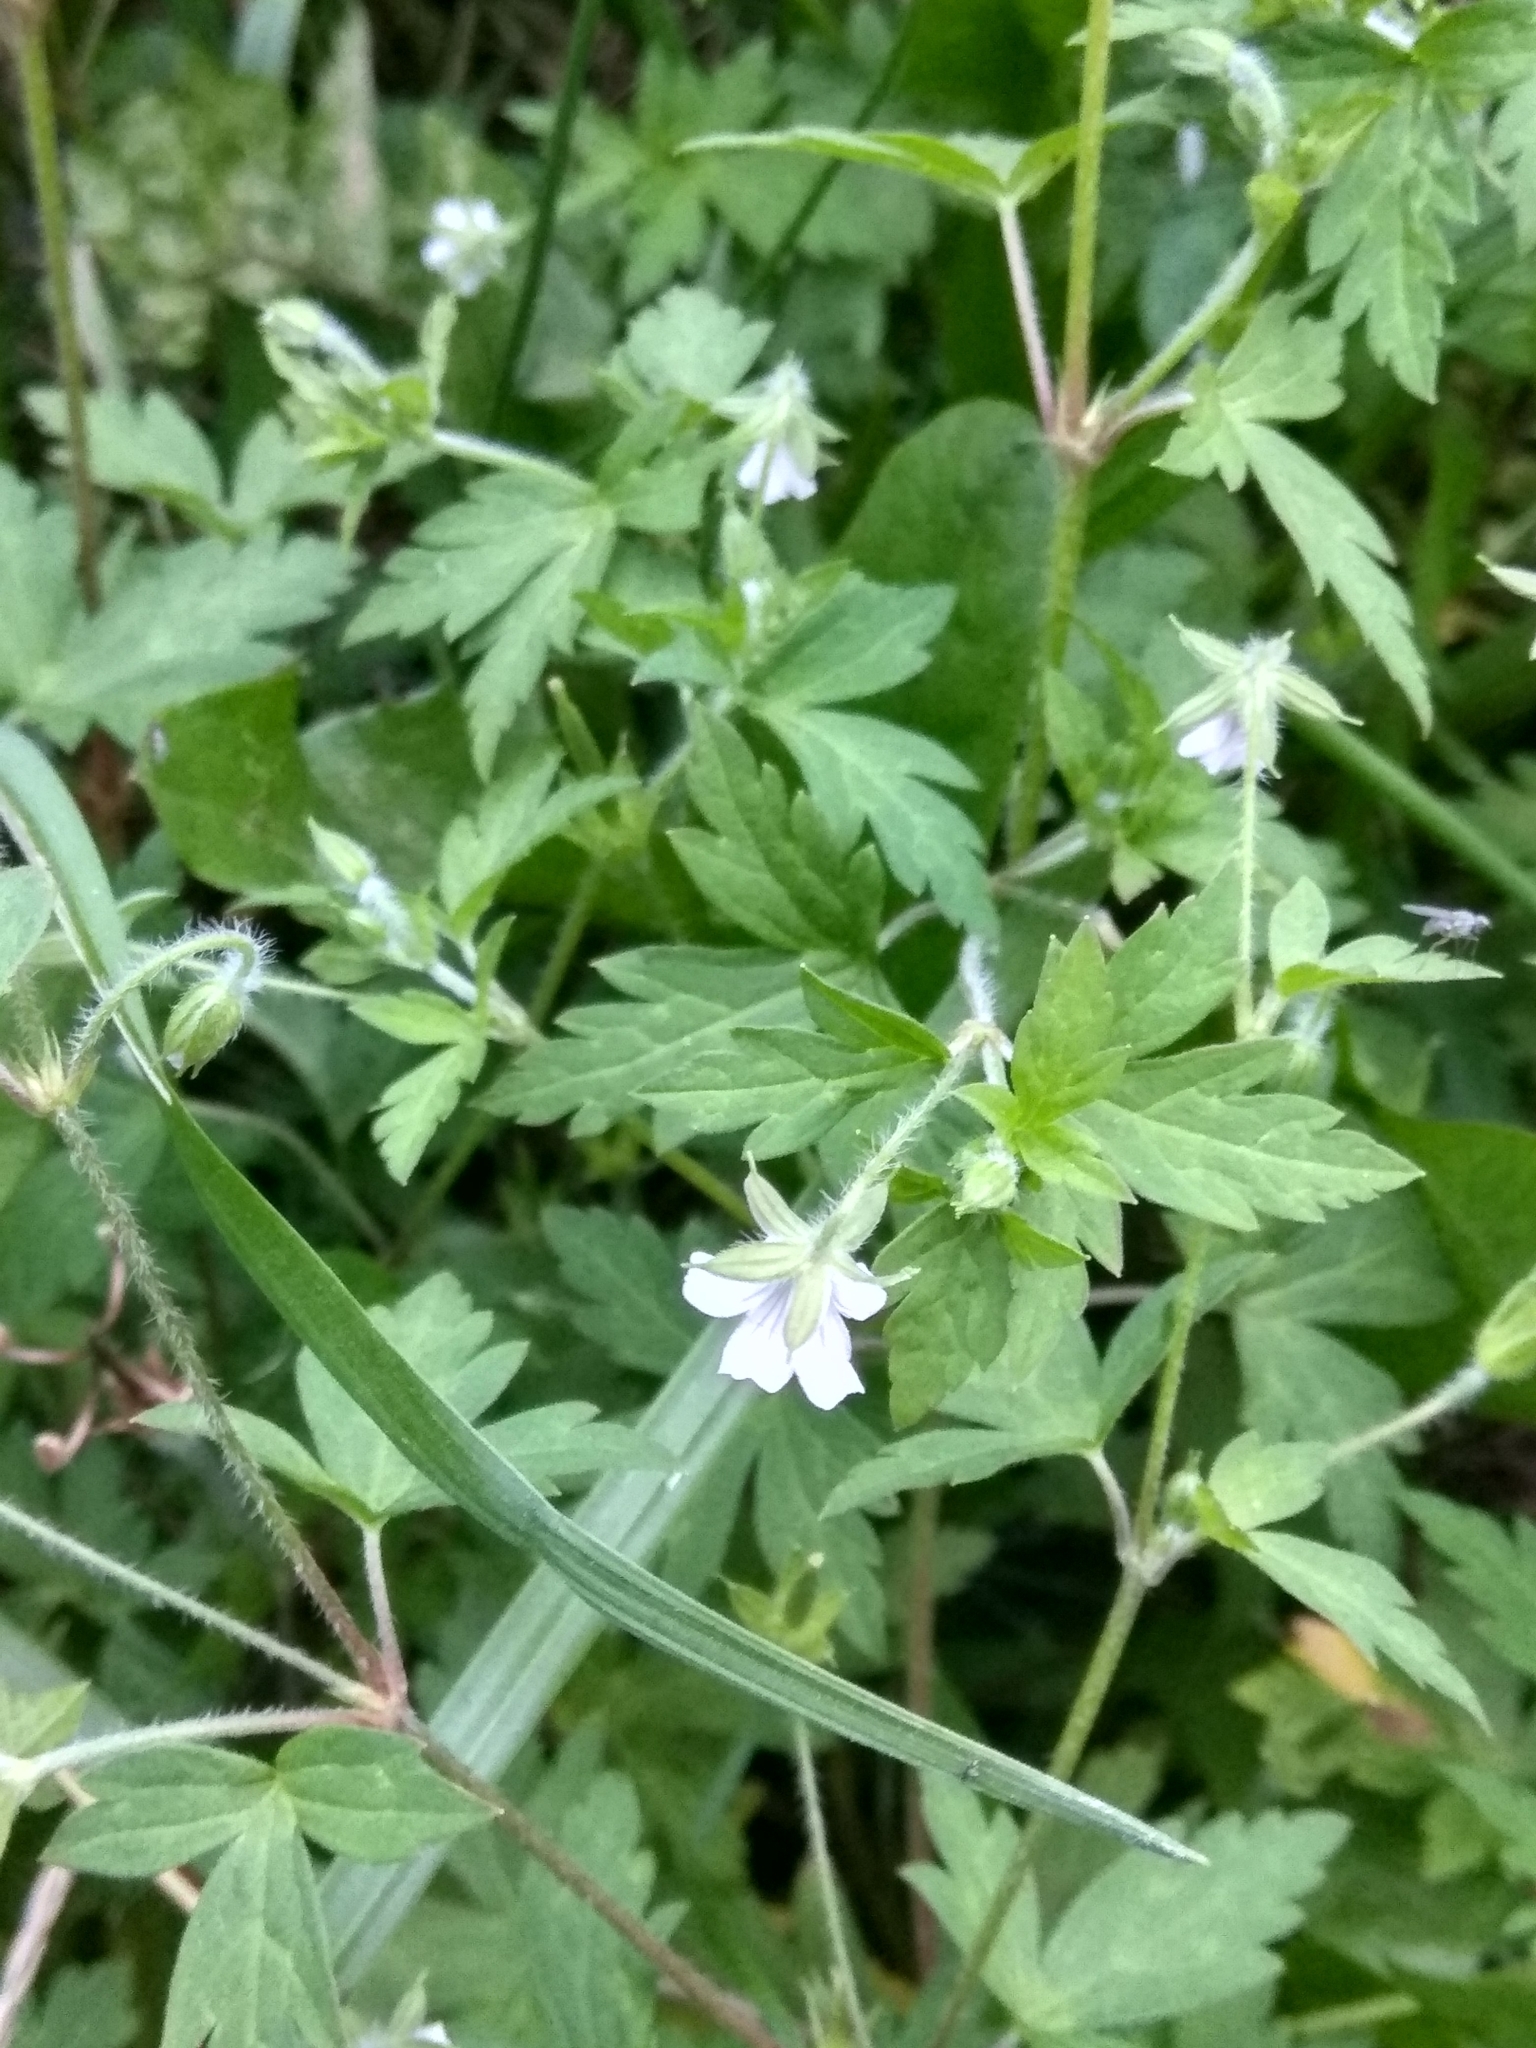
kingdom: Plantae
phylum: Tracheophyta
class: Magnoliopsida
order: Geraniales
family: Geraniaceae
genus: Geranium
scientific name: Geranium sibiricum
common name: Siberian crane's-bill
